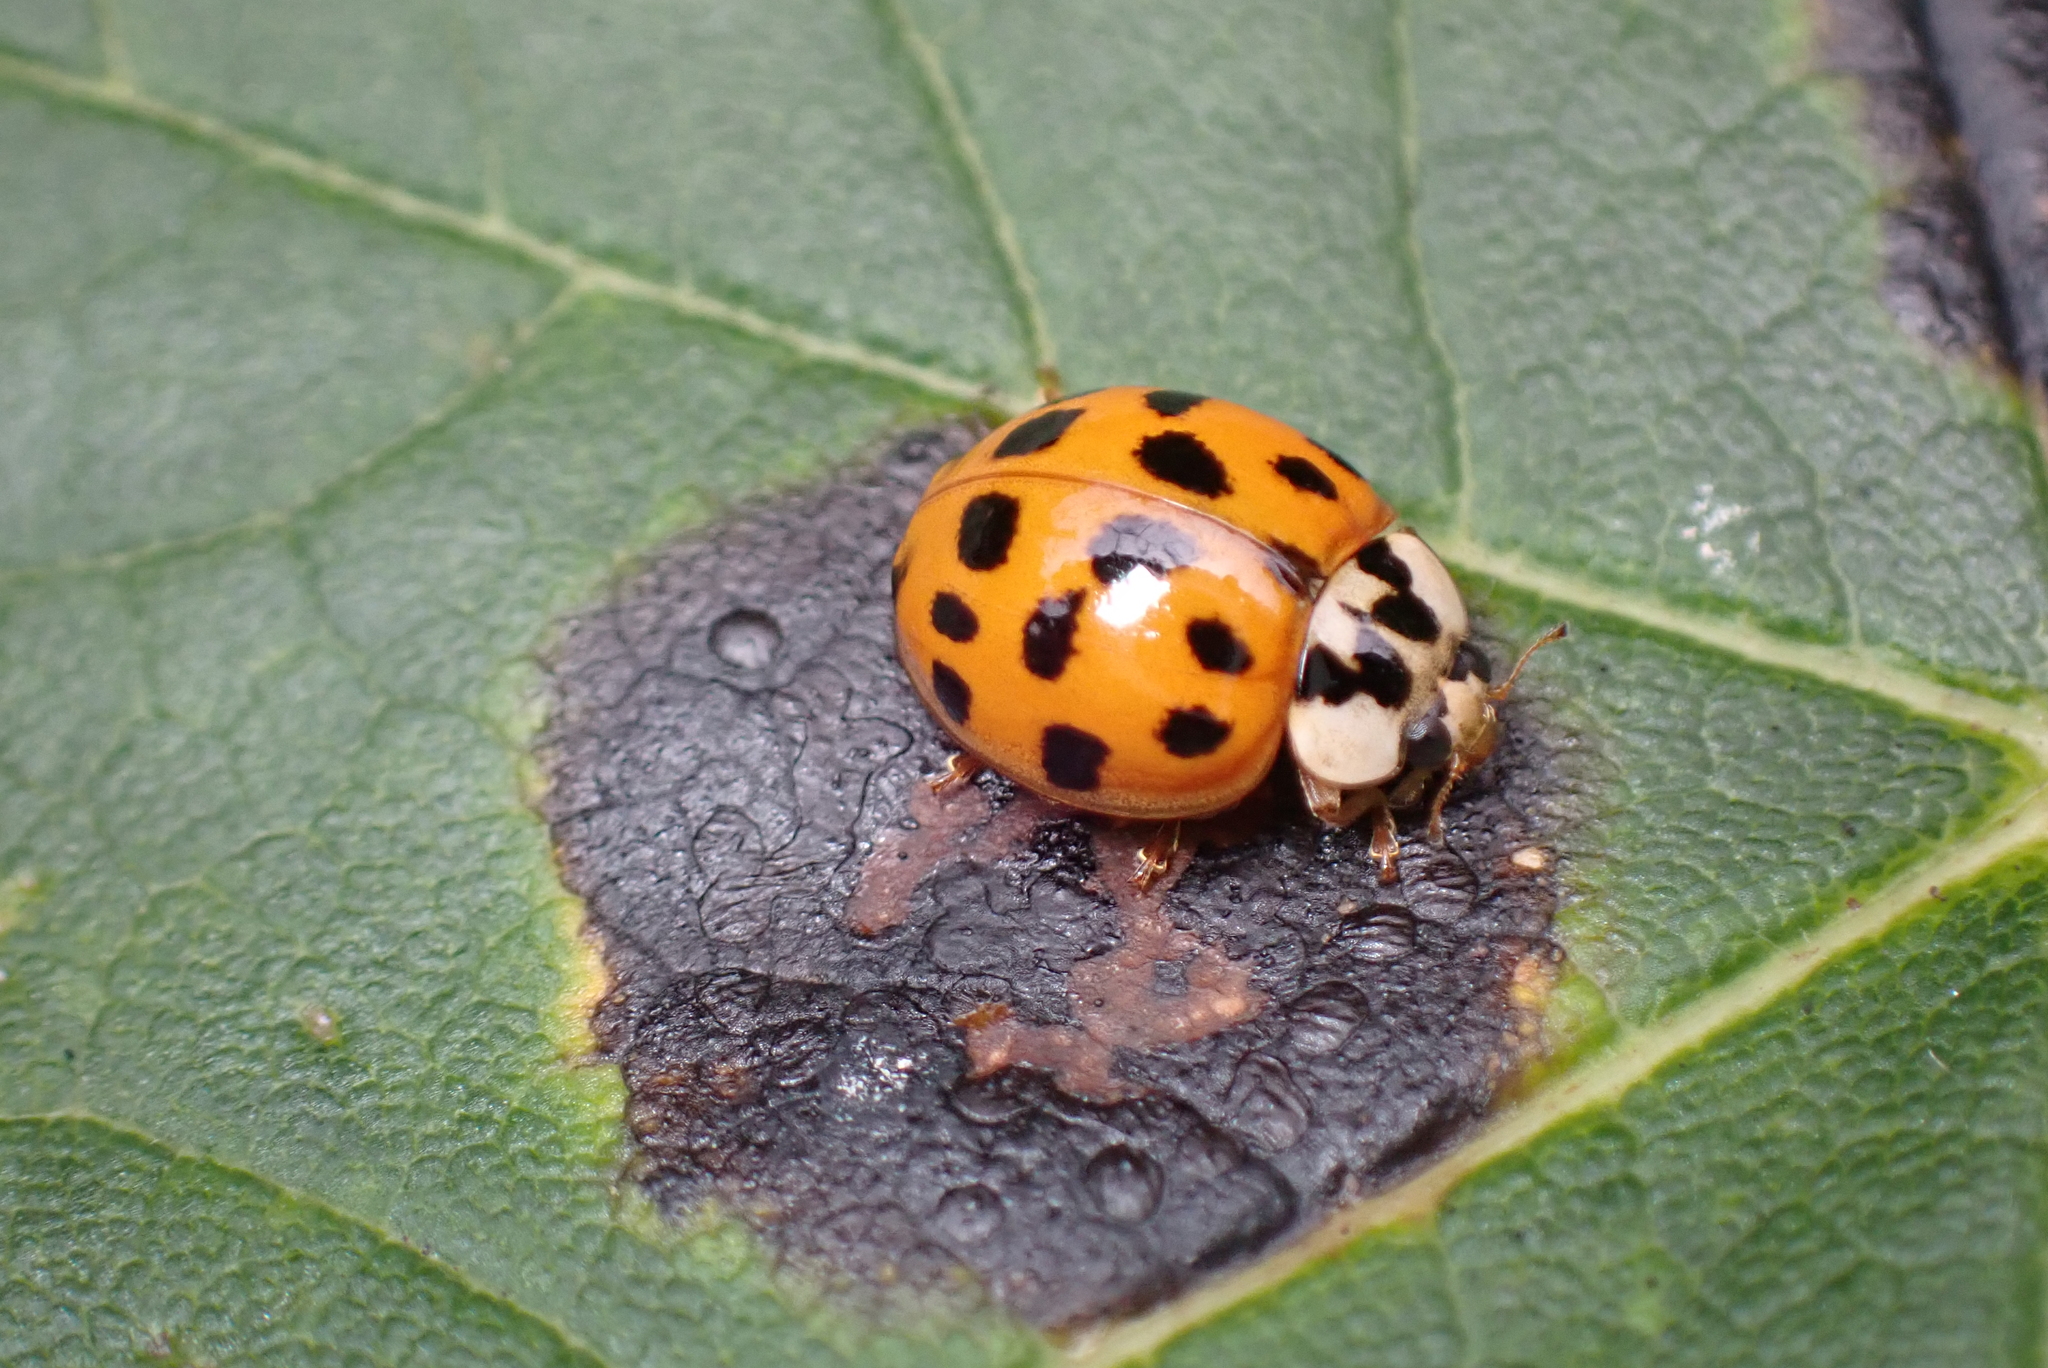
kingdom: Animalia
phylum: Arthropoda
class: Insecta
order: Coleoptera
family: Coccinellidae
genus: Harmonia
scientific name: Harmonia axyridis
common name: Harlequin ladybird
